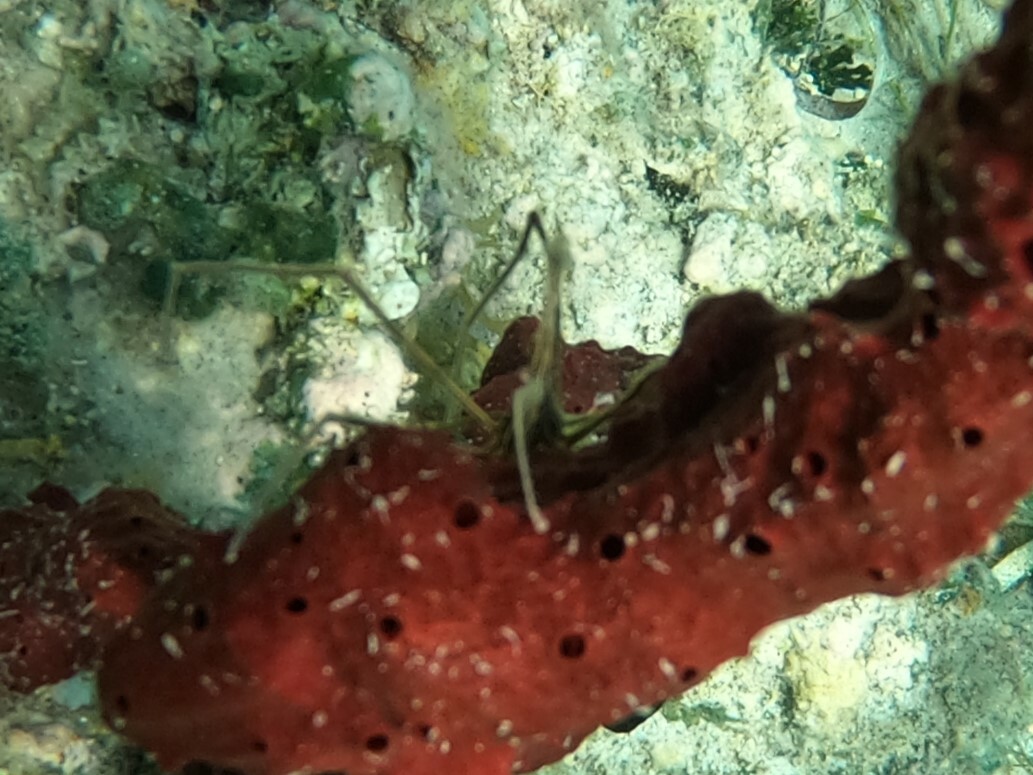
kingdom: Animalia
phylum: Arthropoda
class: Malacostraca
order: Decapoda
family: Inachoididae
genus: Stenorhynchus
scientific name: Stenorhynchus seticornis
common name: Arrow crab
